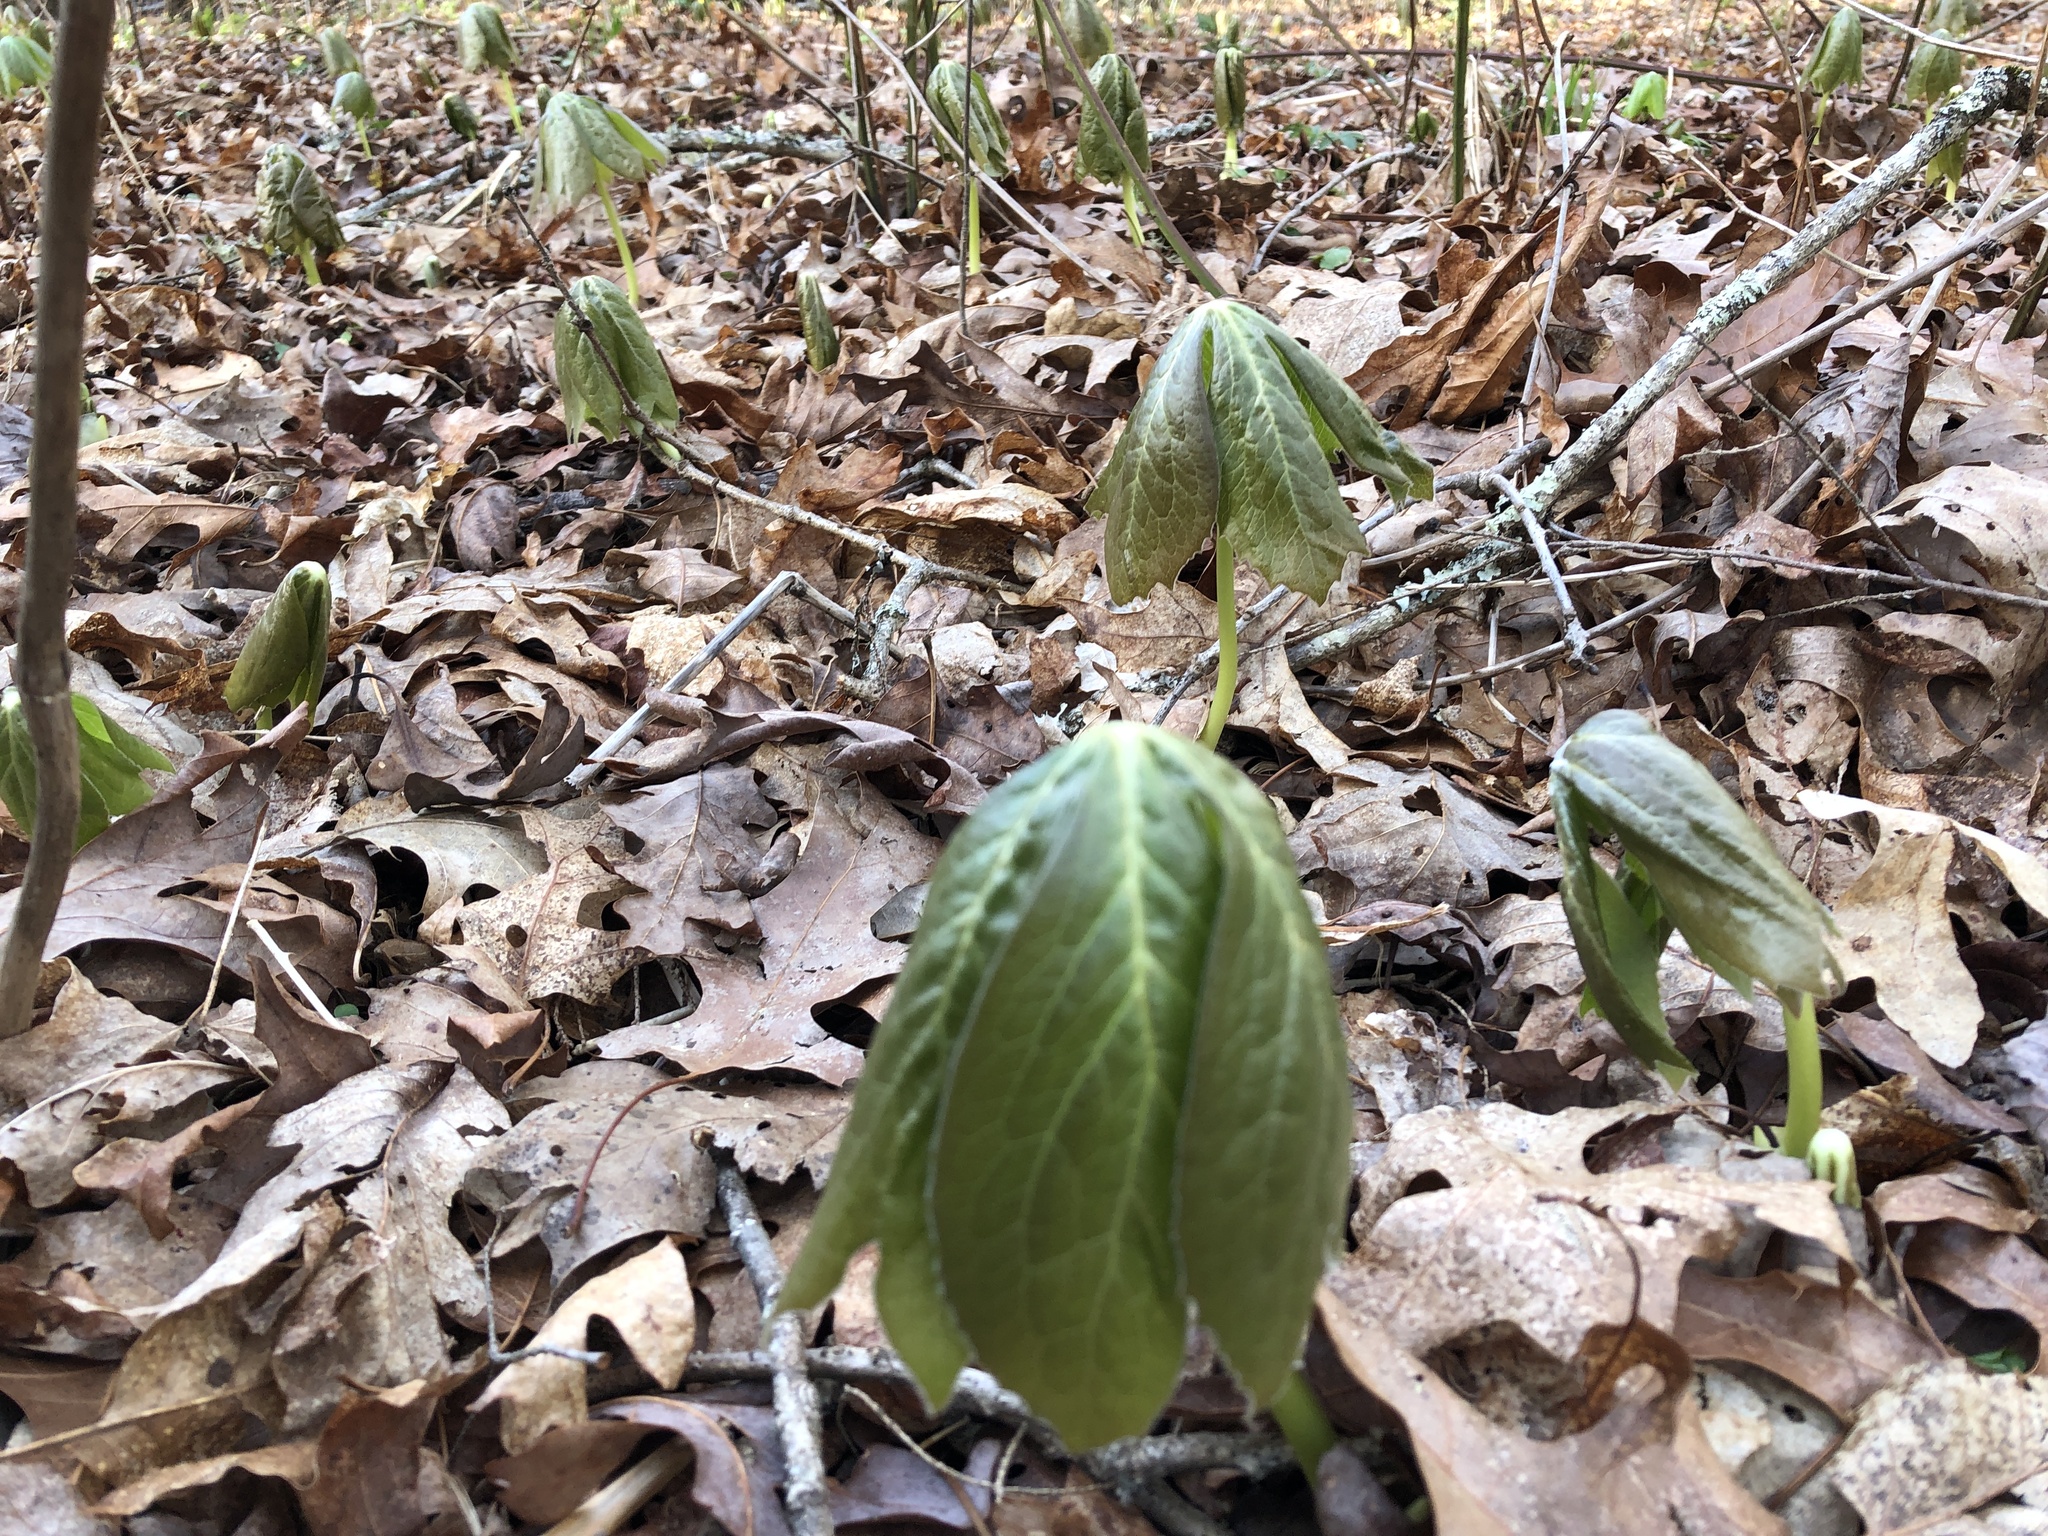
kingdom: Plantae
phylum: Tracheophyta
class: Magnoliopsida
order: Ranunculales
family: Berberidaceae
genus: Podophyllum
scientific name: Podophyllum peltatum
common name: Wild mandrake
